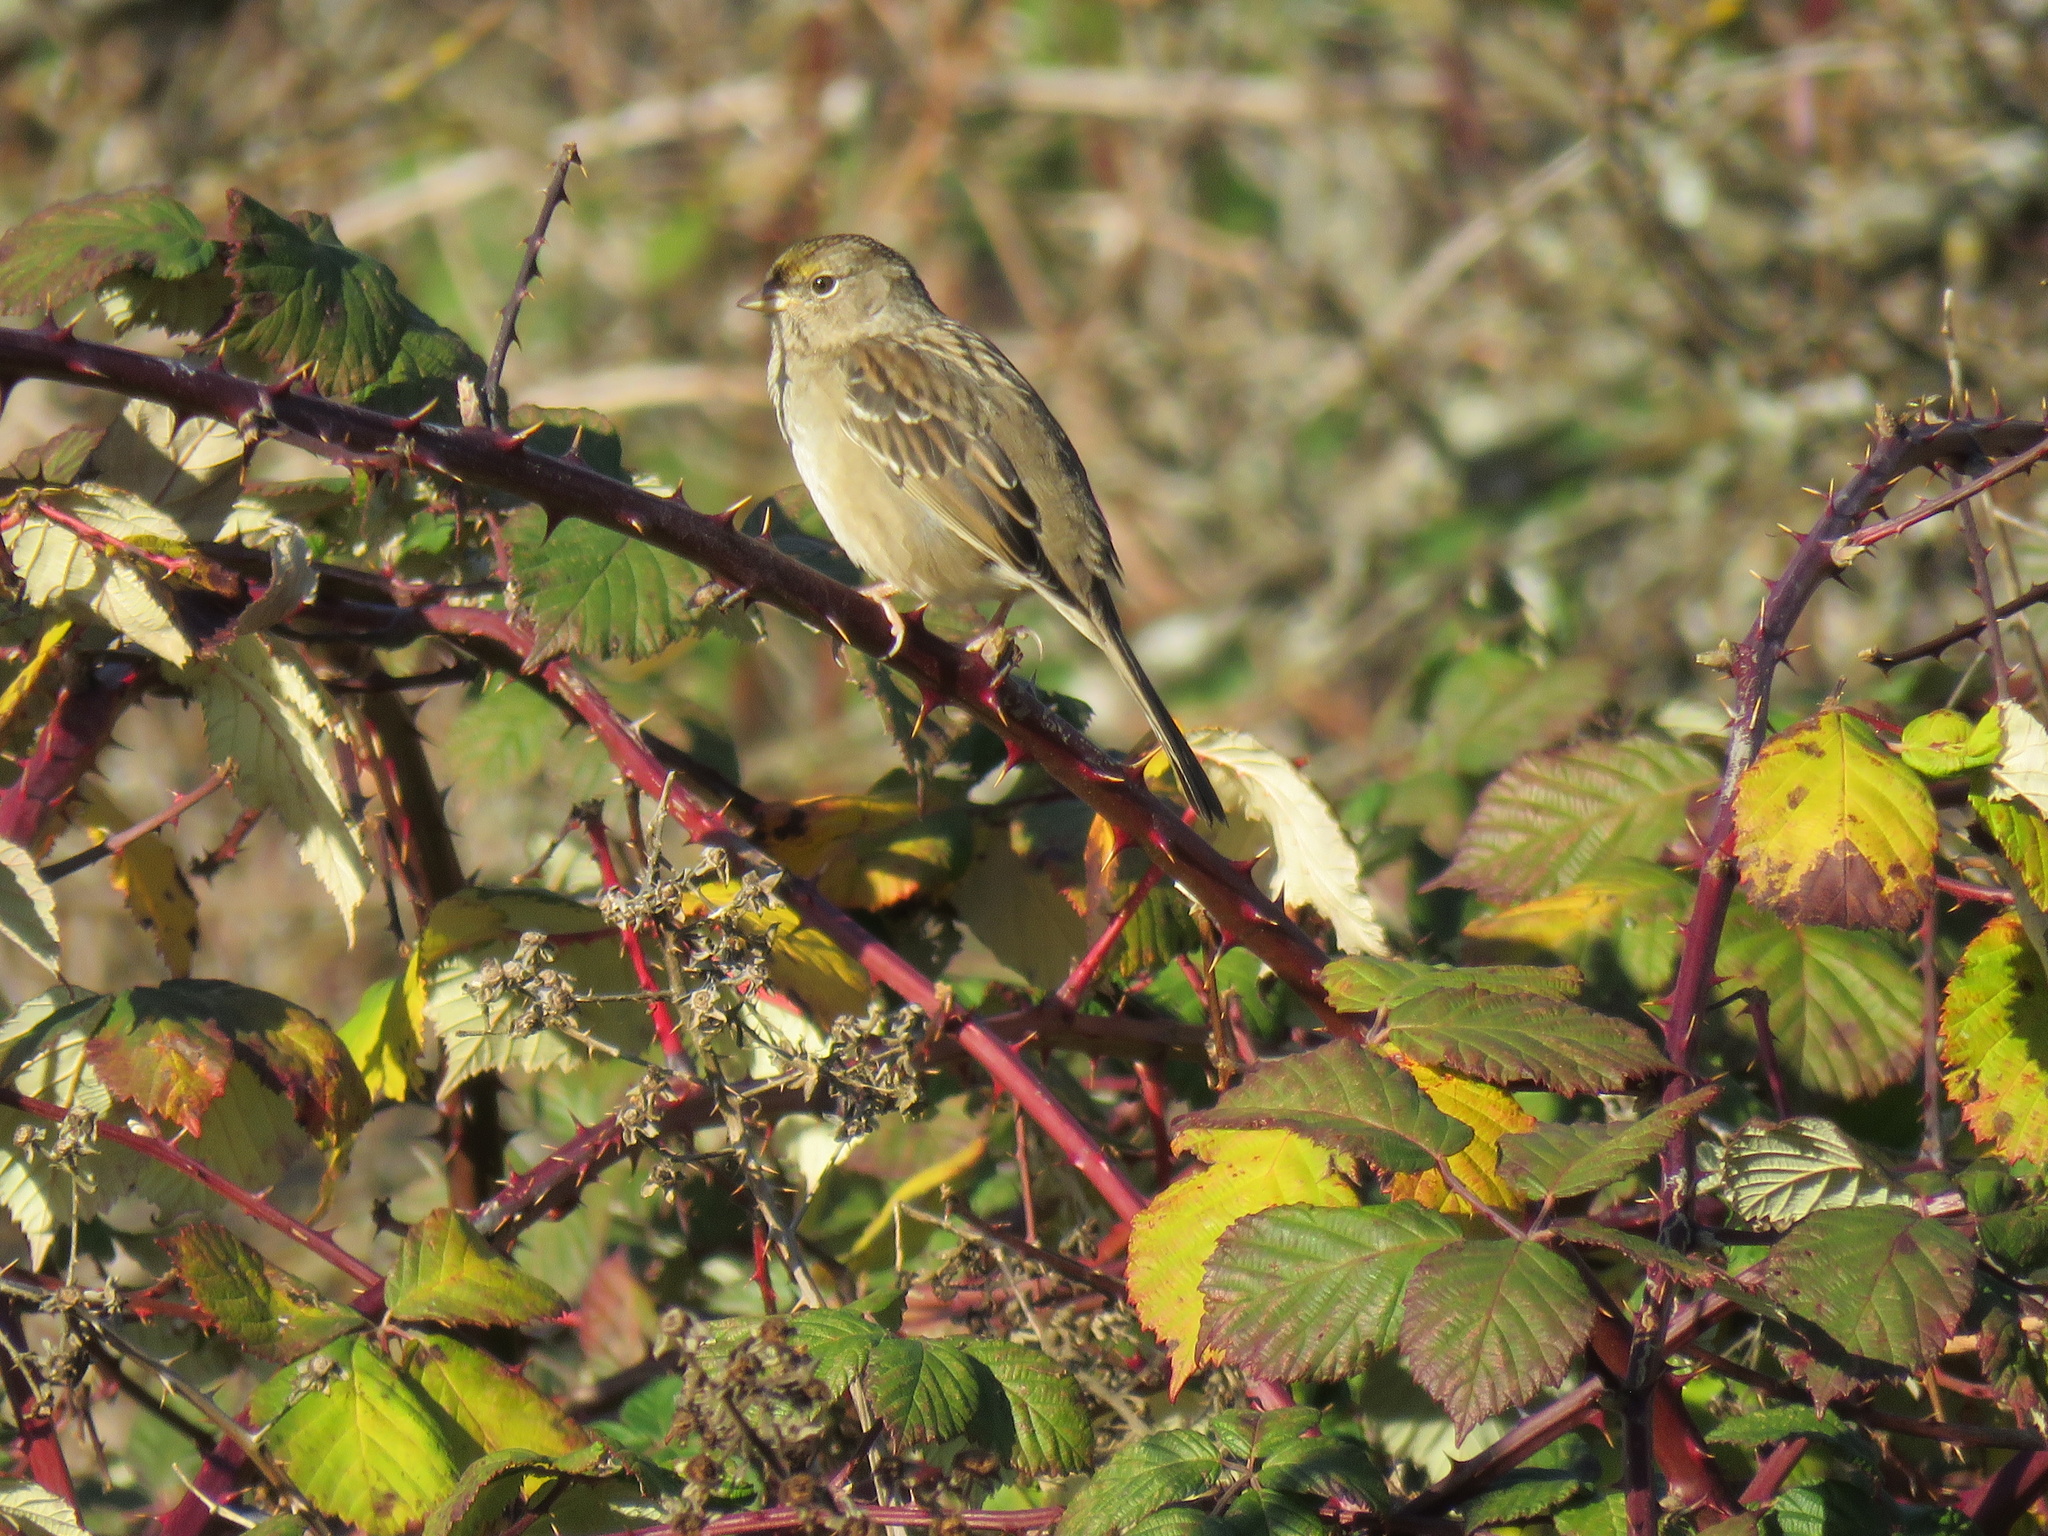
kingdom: Animalia
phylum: Chordata
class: Aves
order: Passeriformes
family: Passerellidae
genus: Zonotrichia
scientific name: Zonotrichia atricapilla
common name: Golden-crowned sparrow
